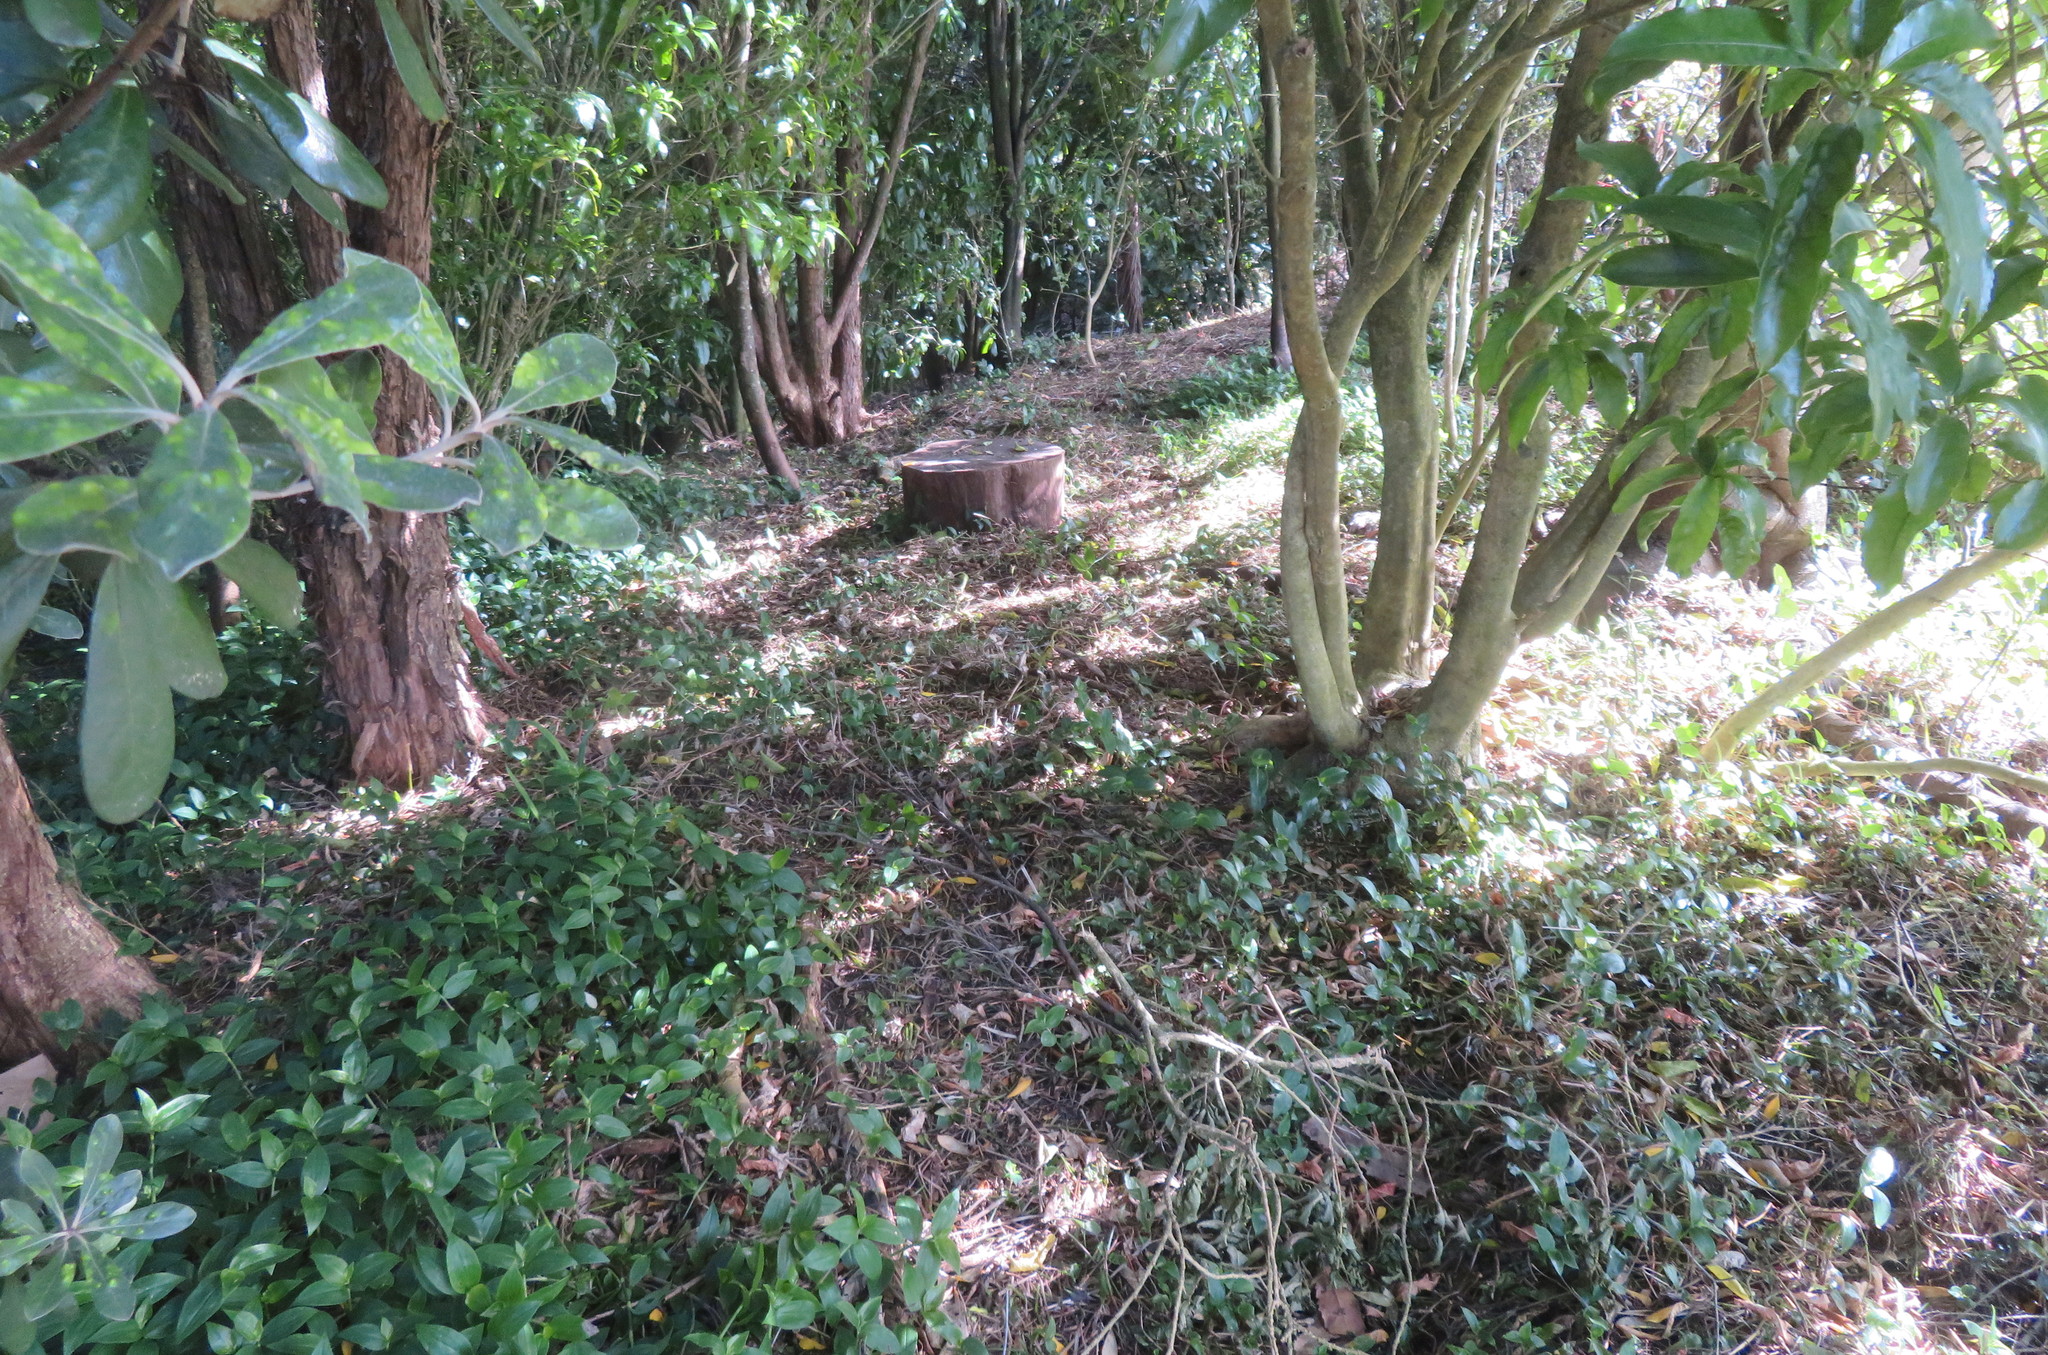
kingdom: Plantae
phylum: Tracheophyta
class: Liliopsida
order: Commelinales
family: Commelinaceae
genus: Tradescantia
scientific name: Tradescantia fluminensis
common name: Wandering-jew
